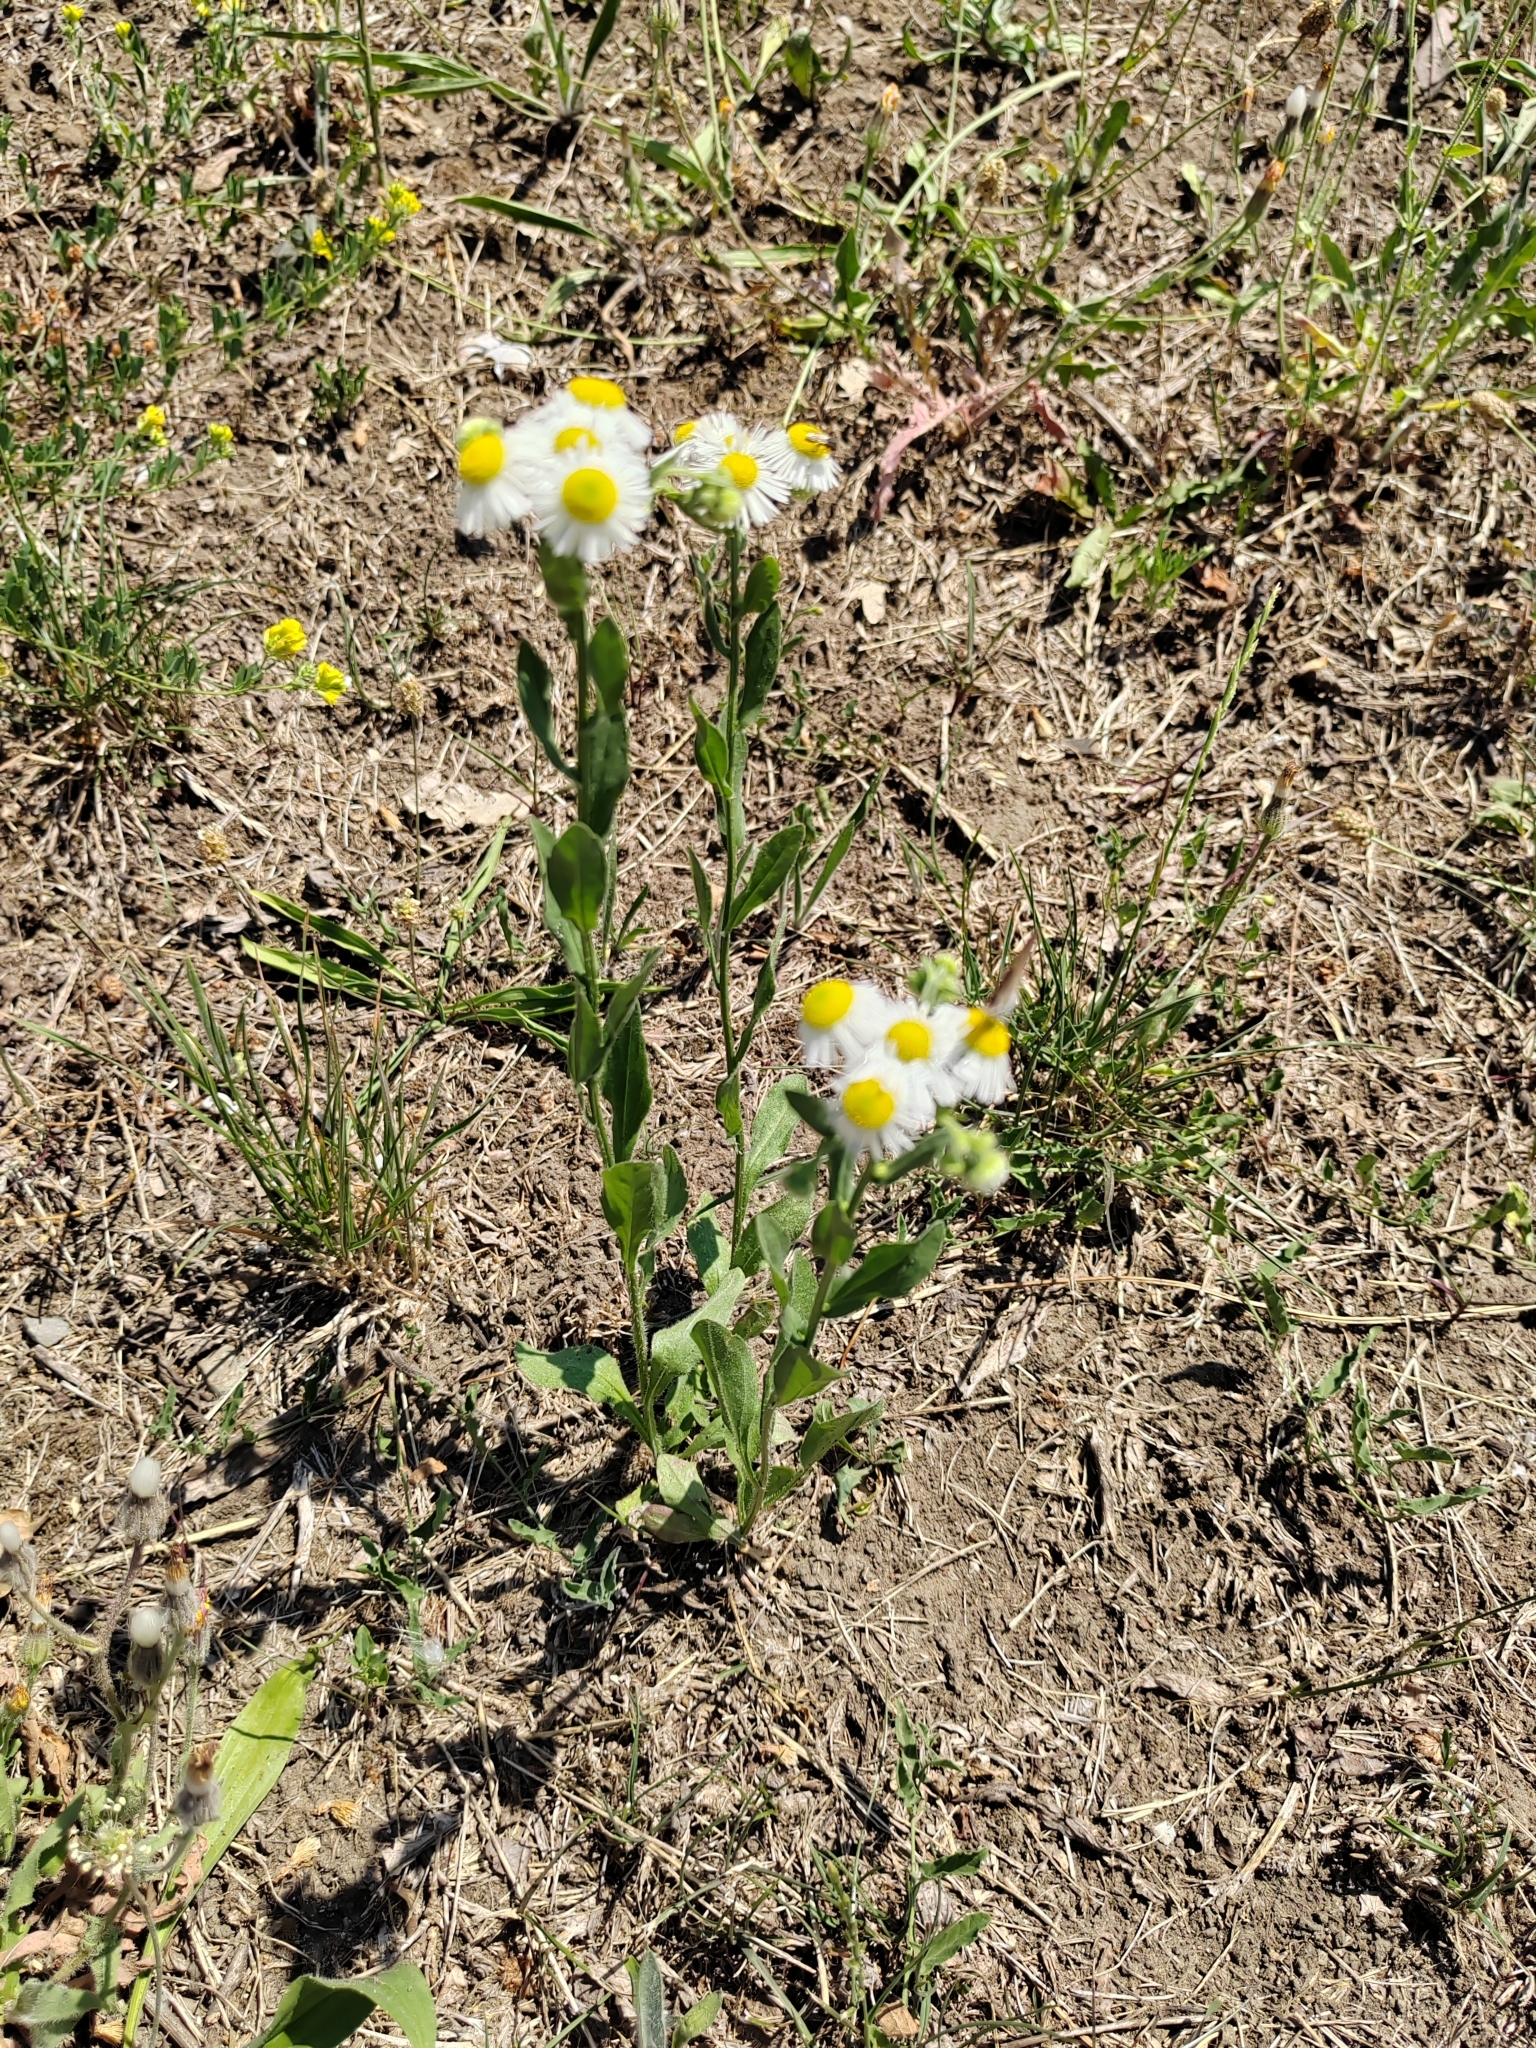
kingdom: Plantae
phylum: Tracheophyta
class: Magnoliopsida
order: Asterales
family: Asteraceae
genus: Erigeron
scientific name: Erigeron annuus
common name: Tall fleabane
